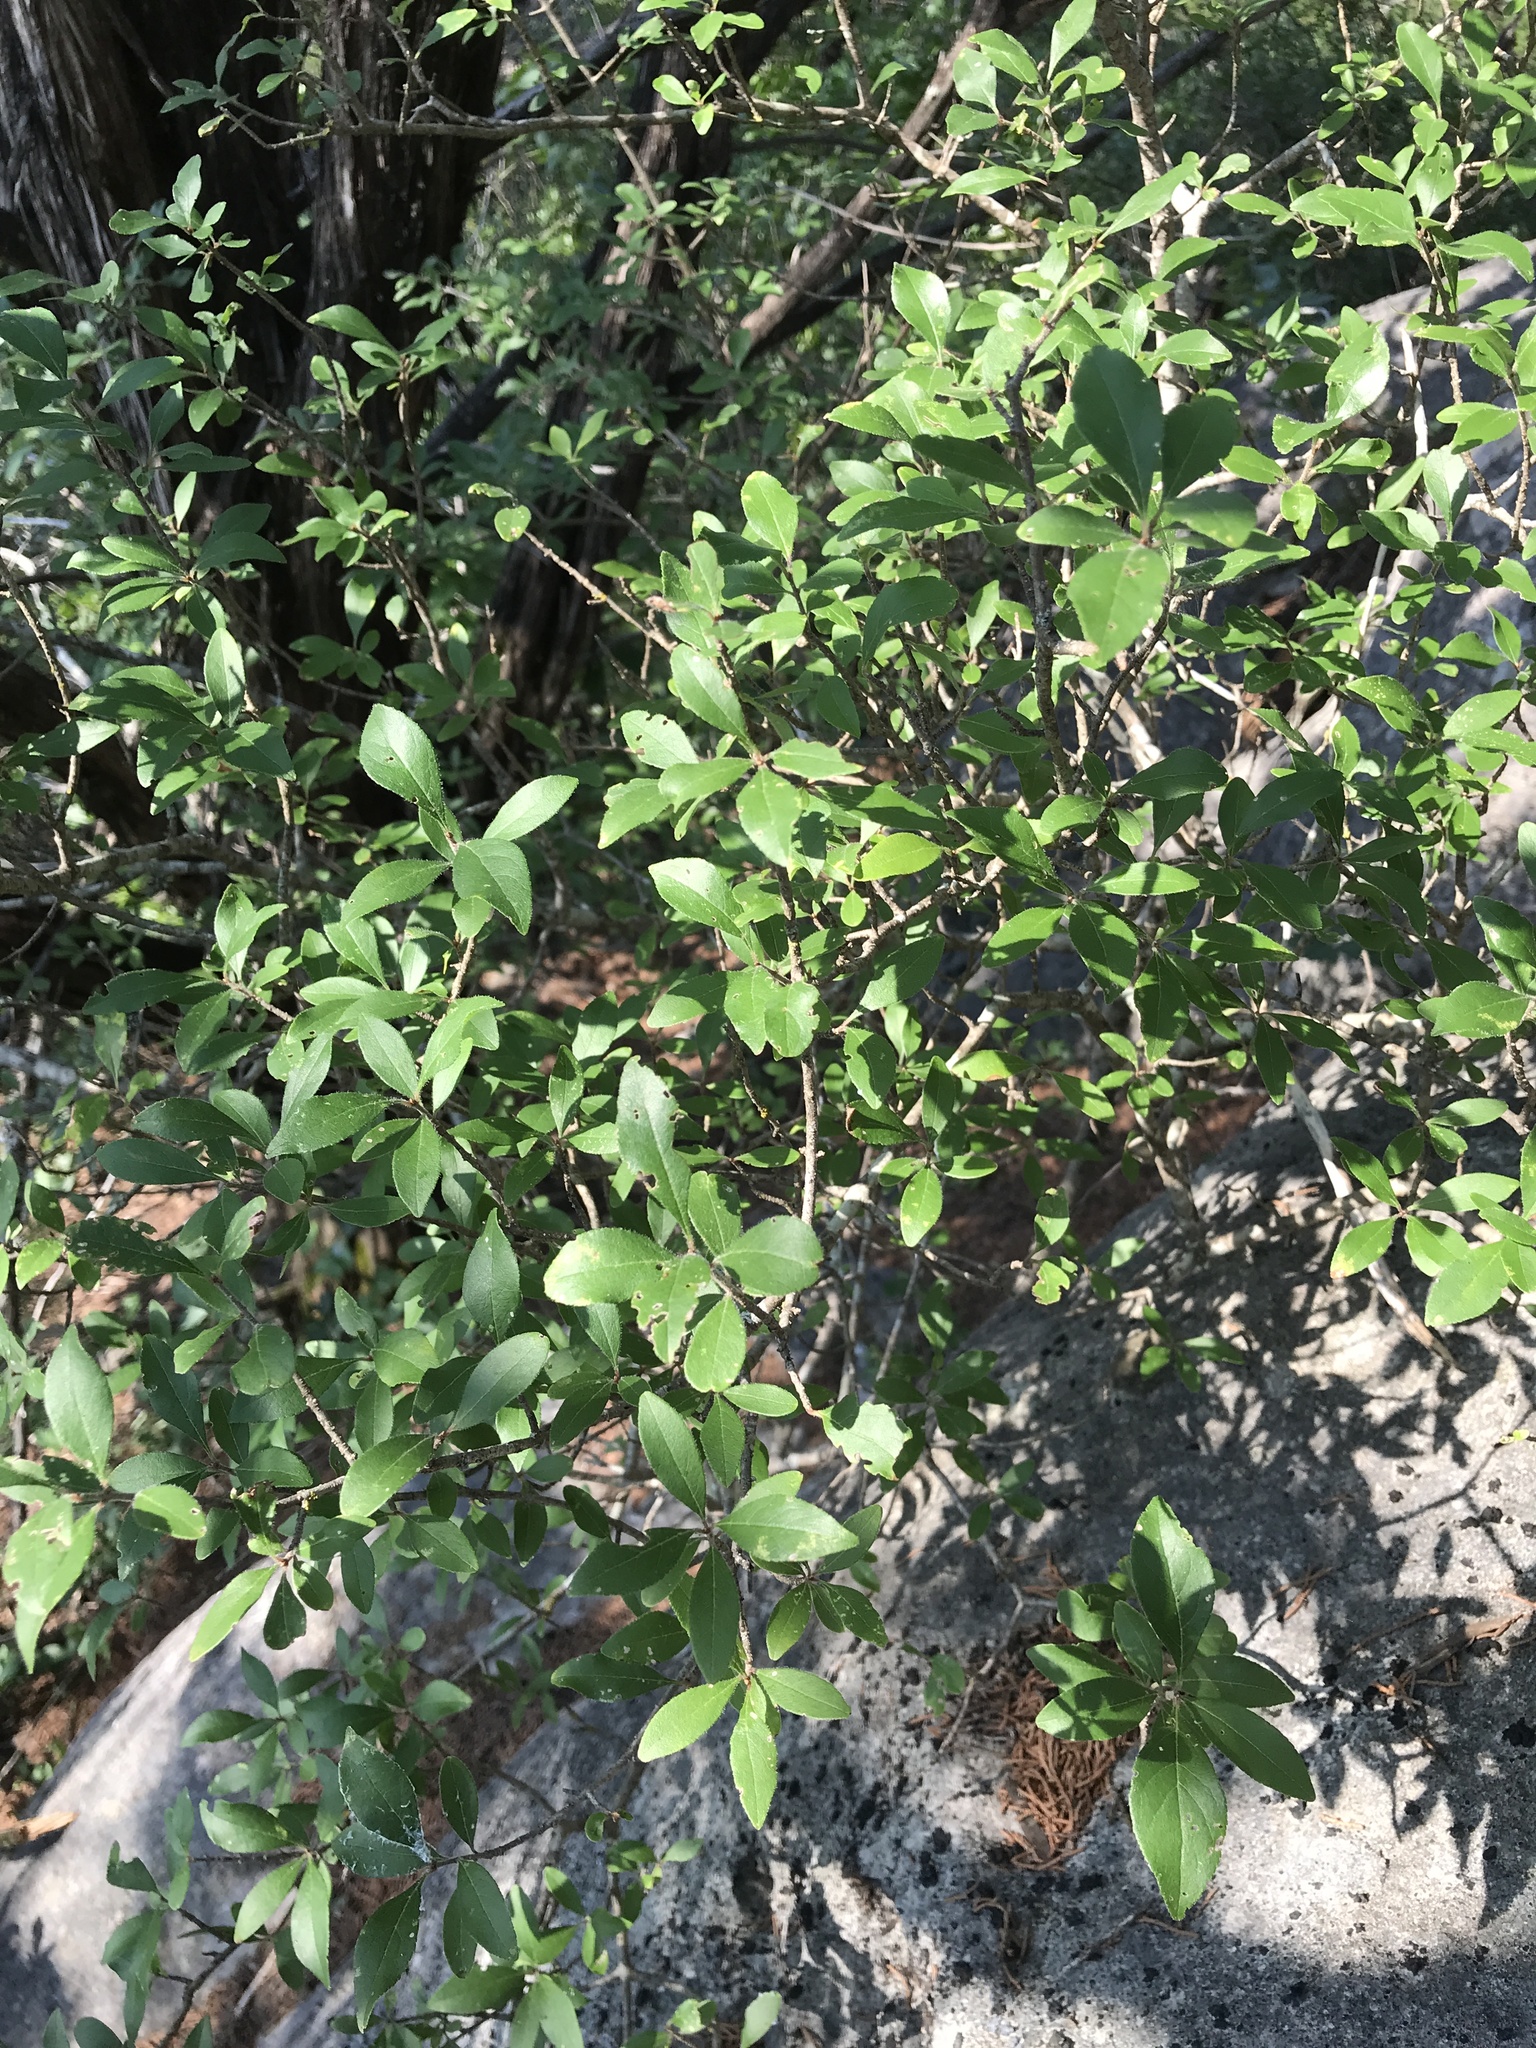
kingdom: Plantae
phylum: Tracheophyta
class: Magnoliopsida
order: Lamiales
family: Oleaceae
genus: Forestiera
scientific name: Forestiera pubescens
